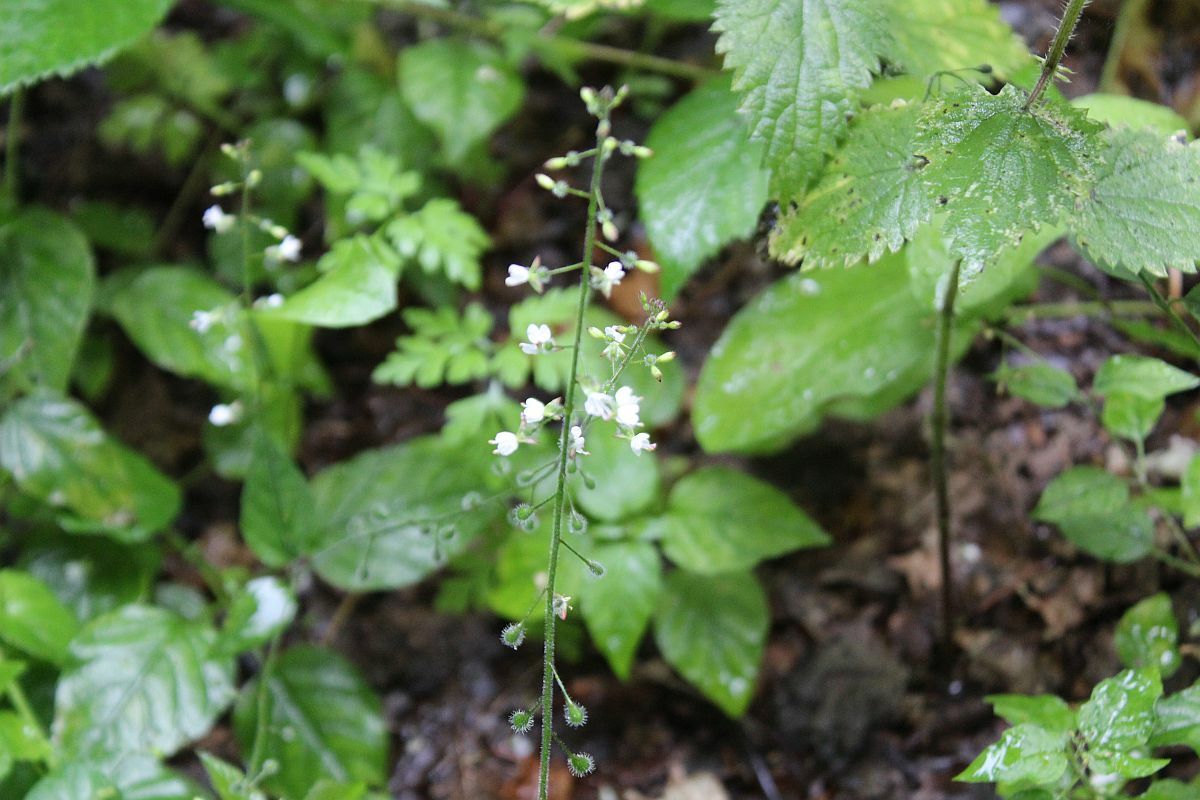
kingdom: Plantae
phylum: Tracheophyta
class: Magnoliopsida
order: Myrtales
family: Onagraceae
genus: Circaea
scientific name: Circaea lutetiana
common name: Enchanter's-nightshade
